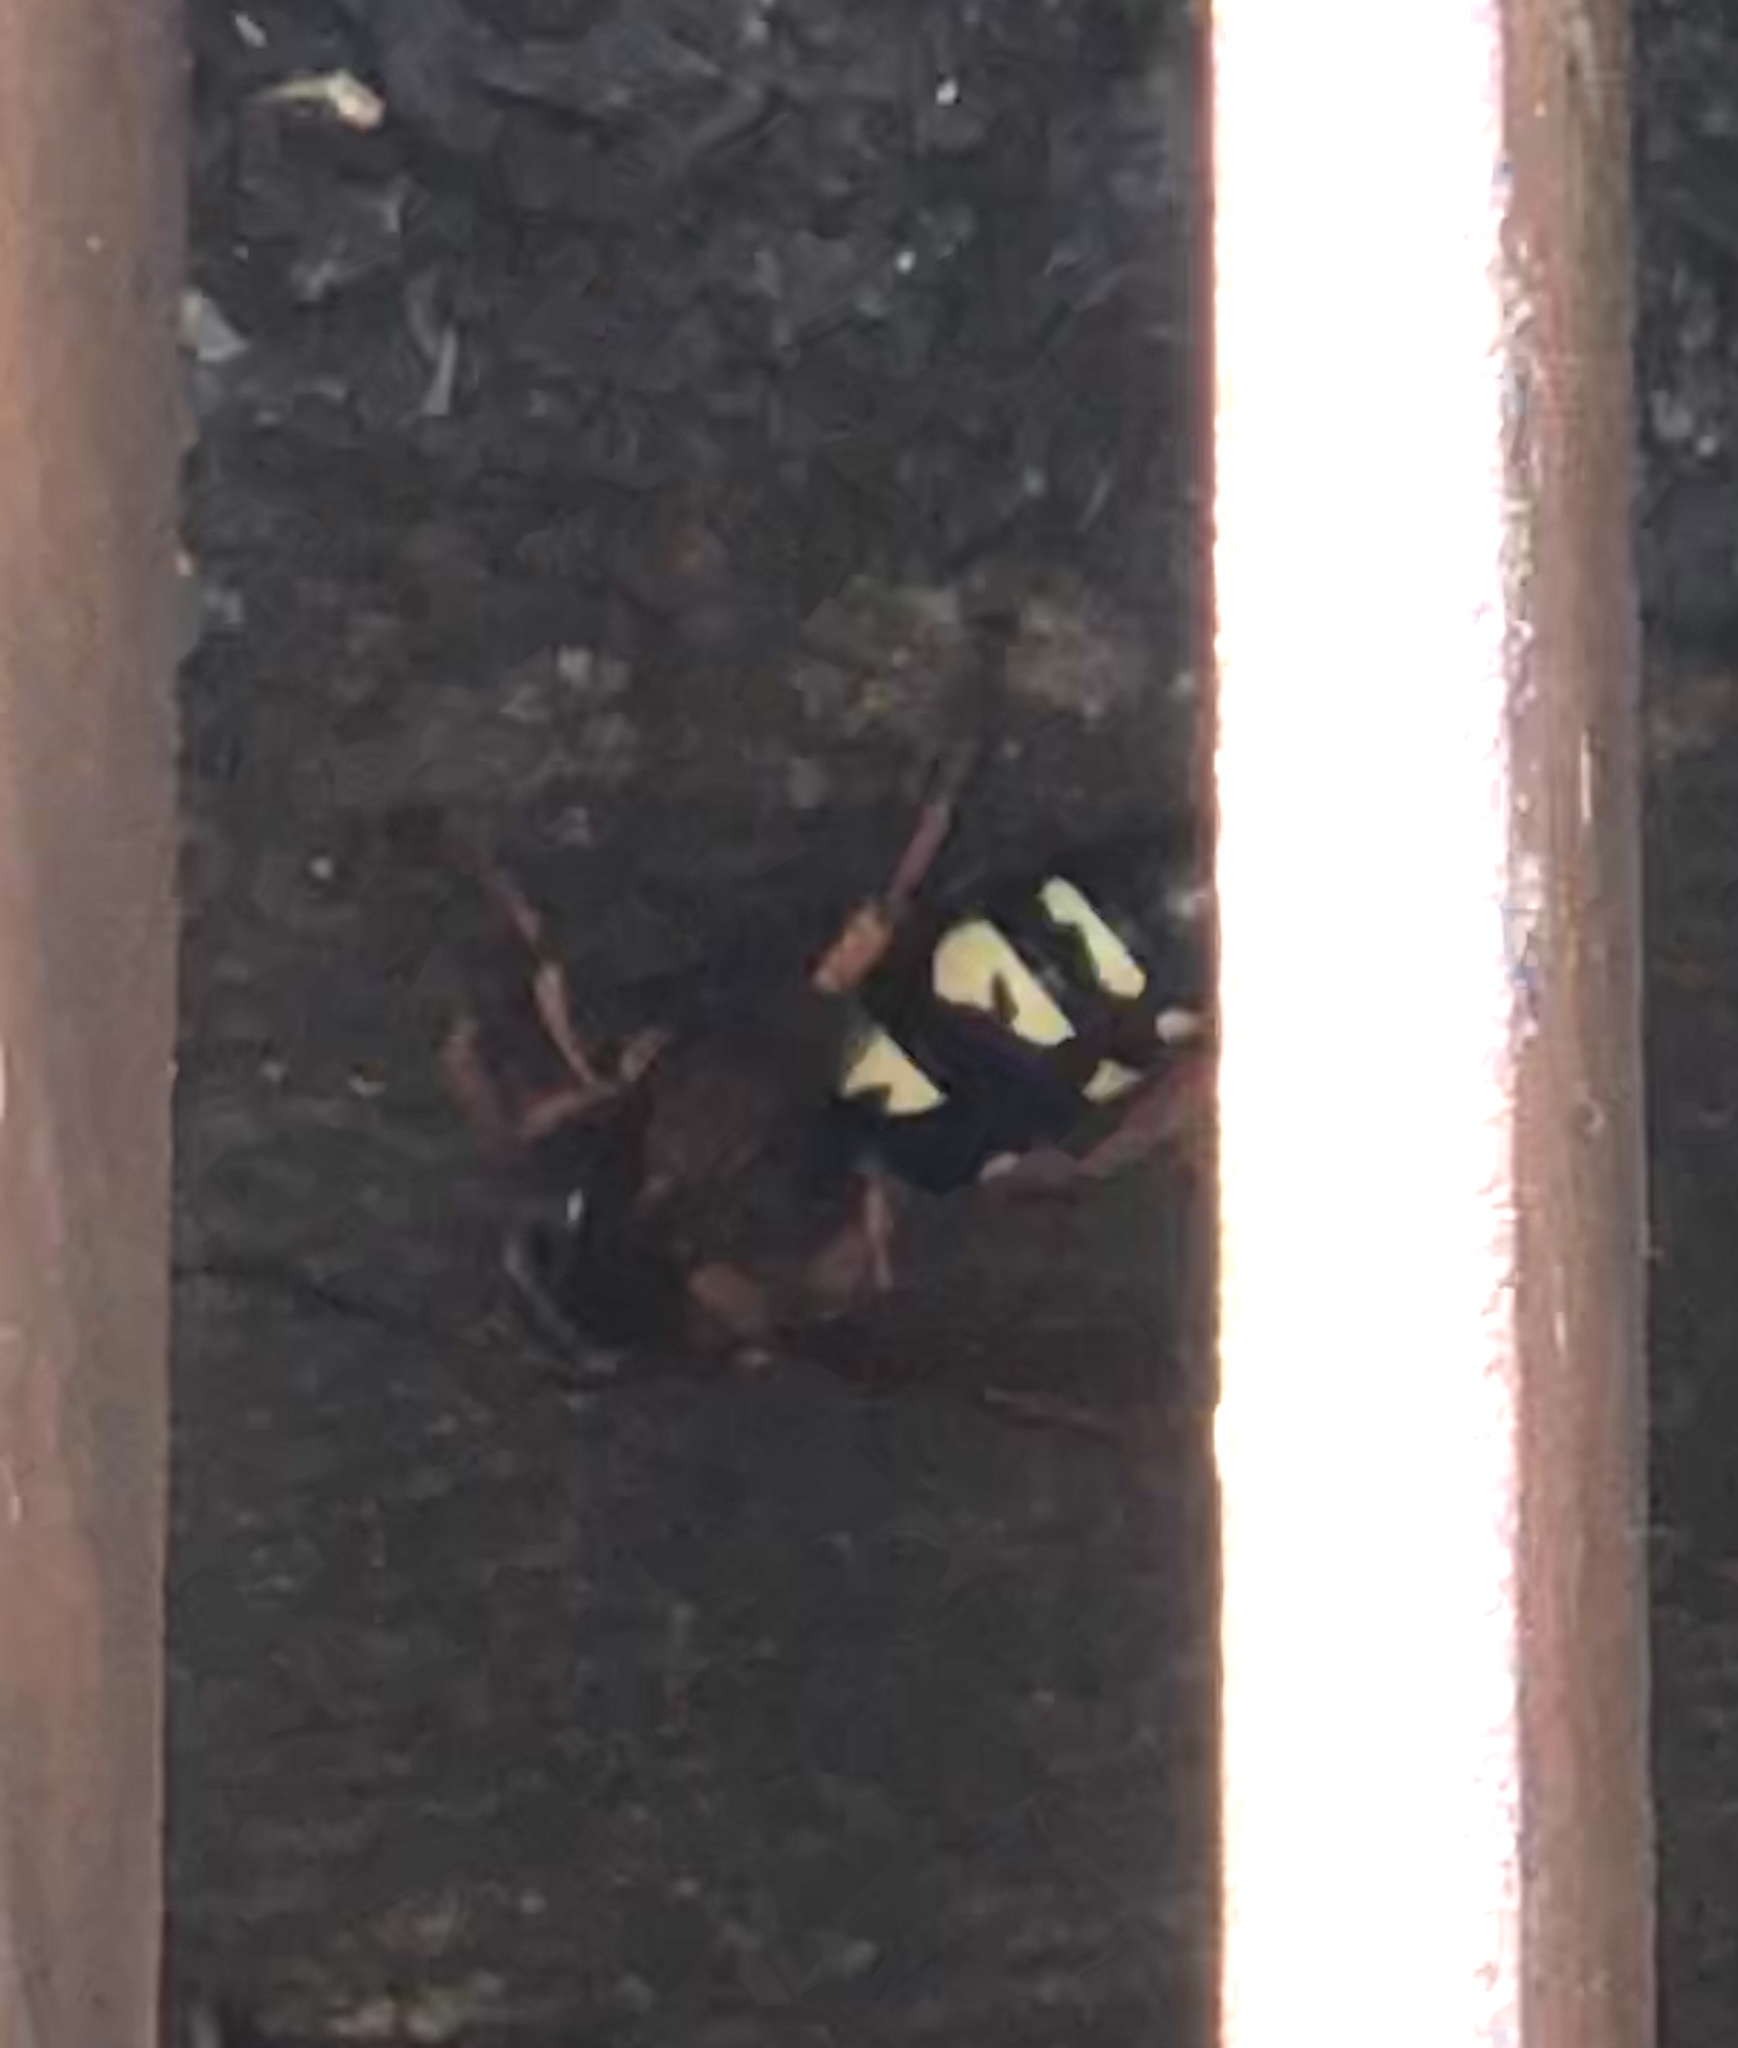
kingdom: Animalia
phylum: Arthropoda
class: Insecta
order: Hymenoptera
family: Crabronidae
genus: Sphecius
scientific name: Sphecius speciosus
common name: Cicada killer
